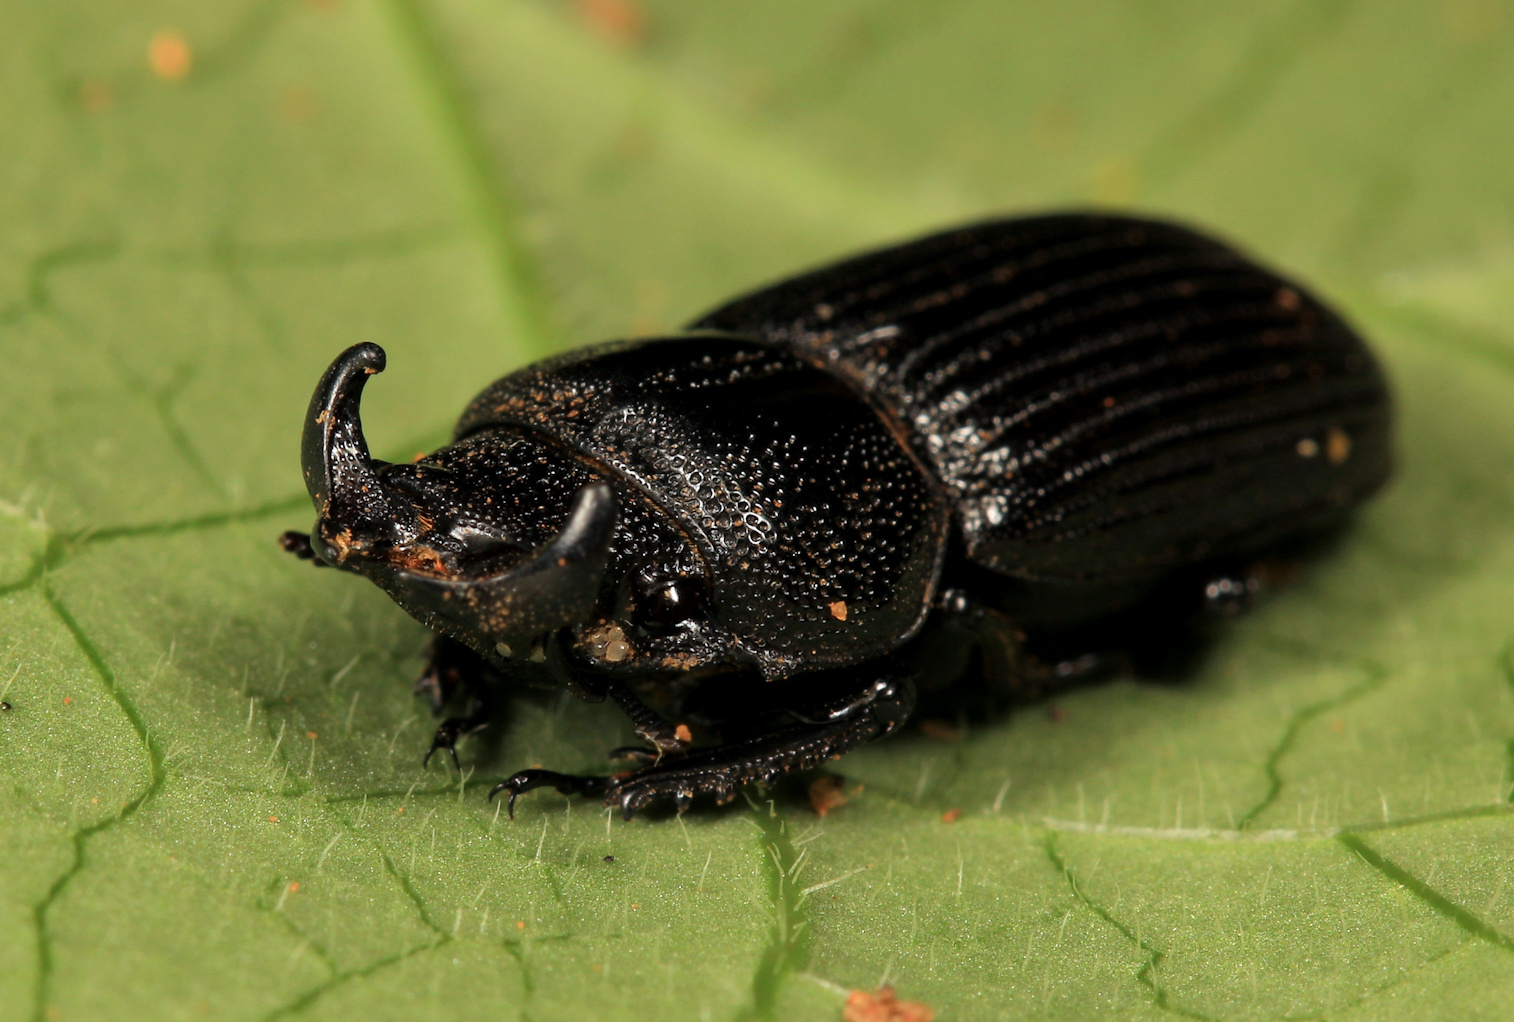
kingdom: Animalia
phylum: Arthropoda
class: Insecta
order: Coleoptera
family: Lucanidae
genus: Nigidius
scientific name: Nigidius delegorguei
